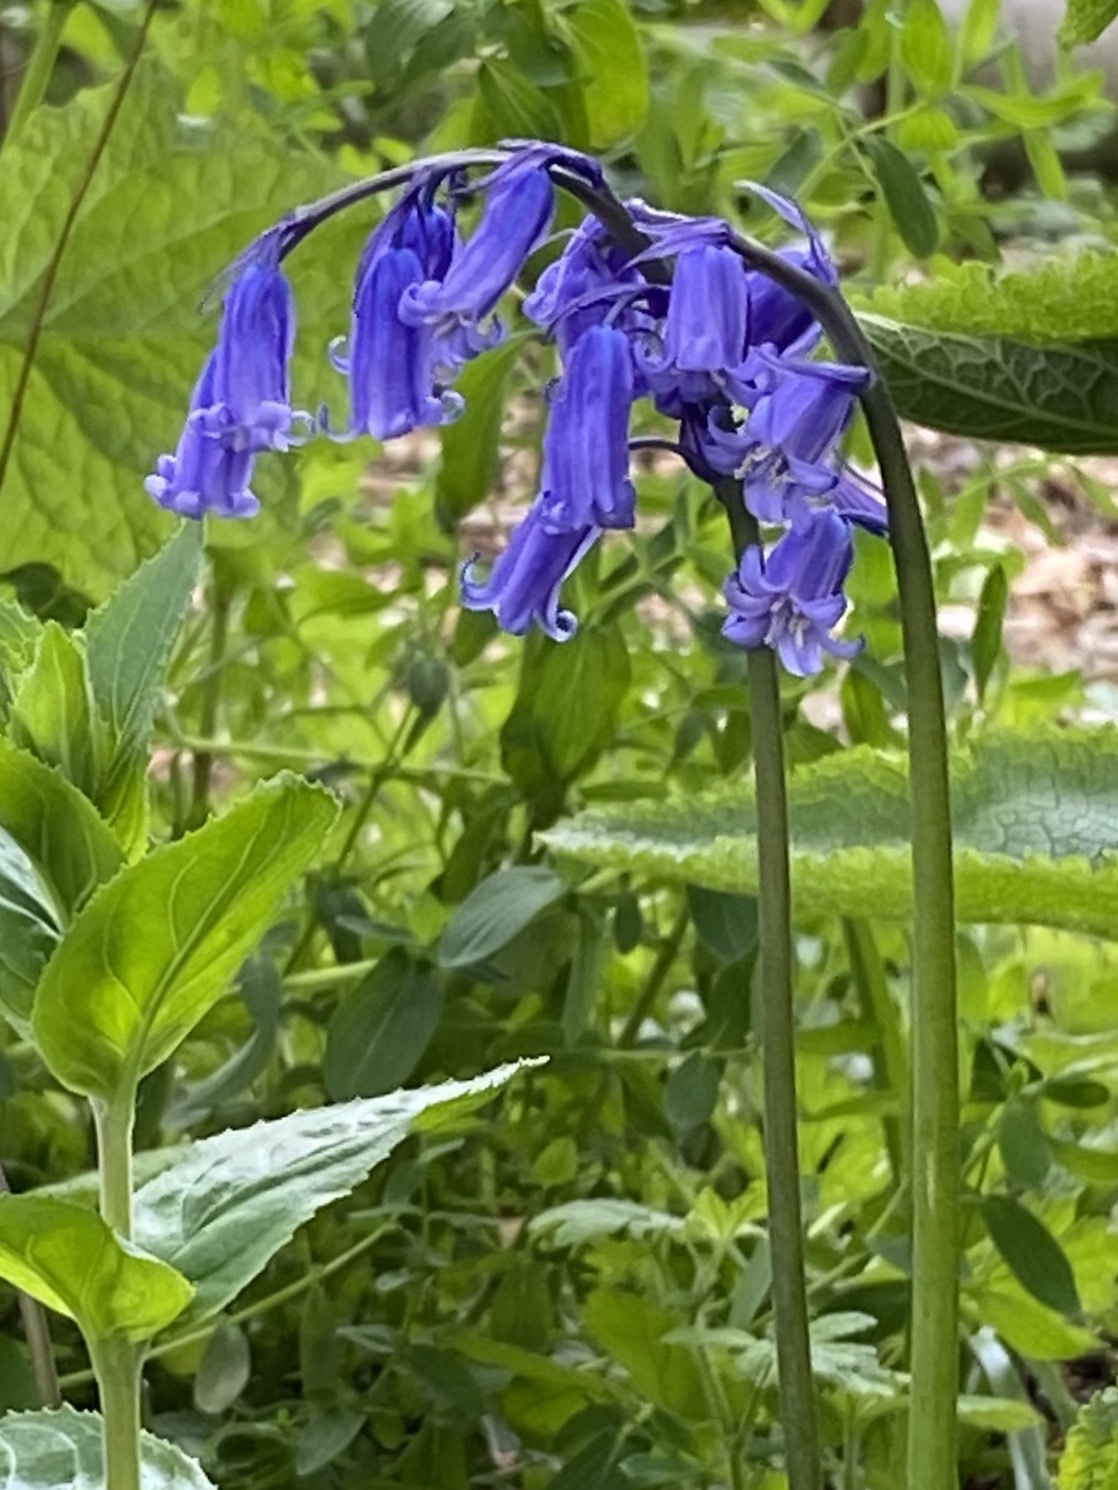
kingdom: Plantae
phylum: Tracheophyta
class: Liliopsida
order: Asparagales
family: Asparagaceae
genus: Hyacinthoides
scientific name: Hyacinthoides non-scripta
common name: Bluebell
